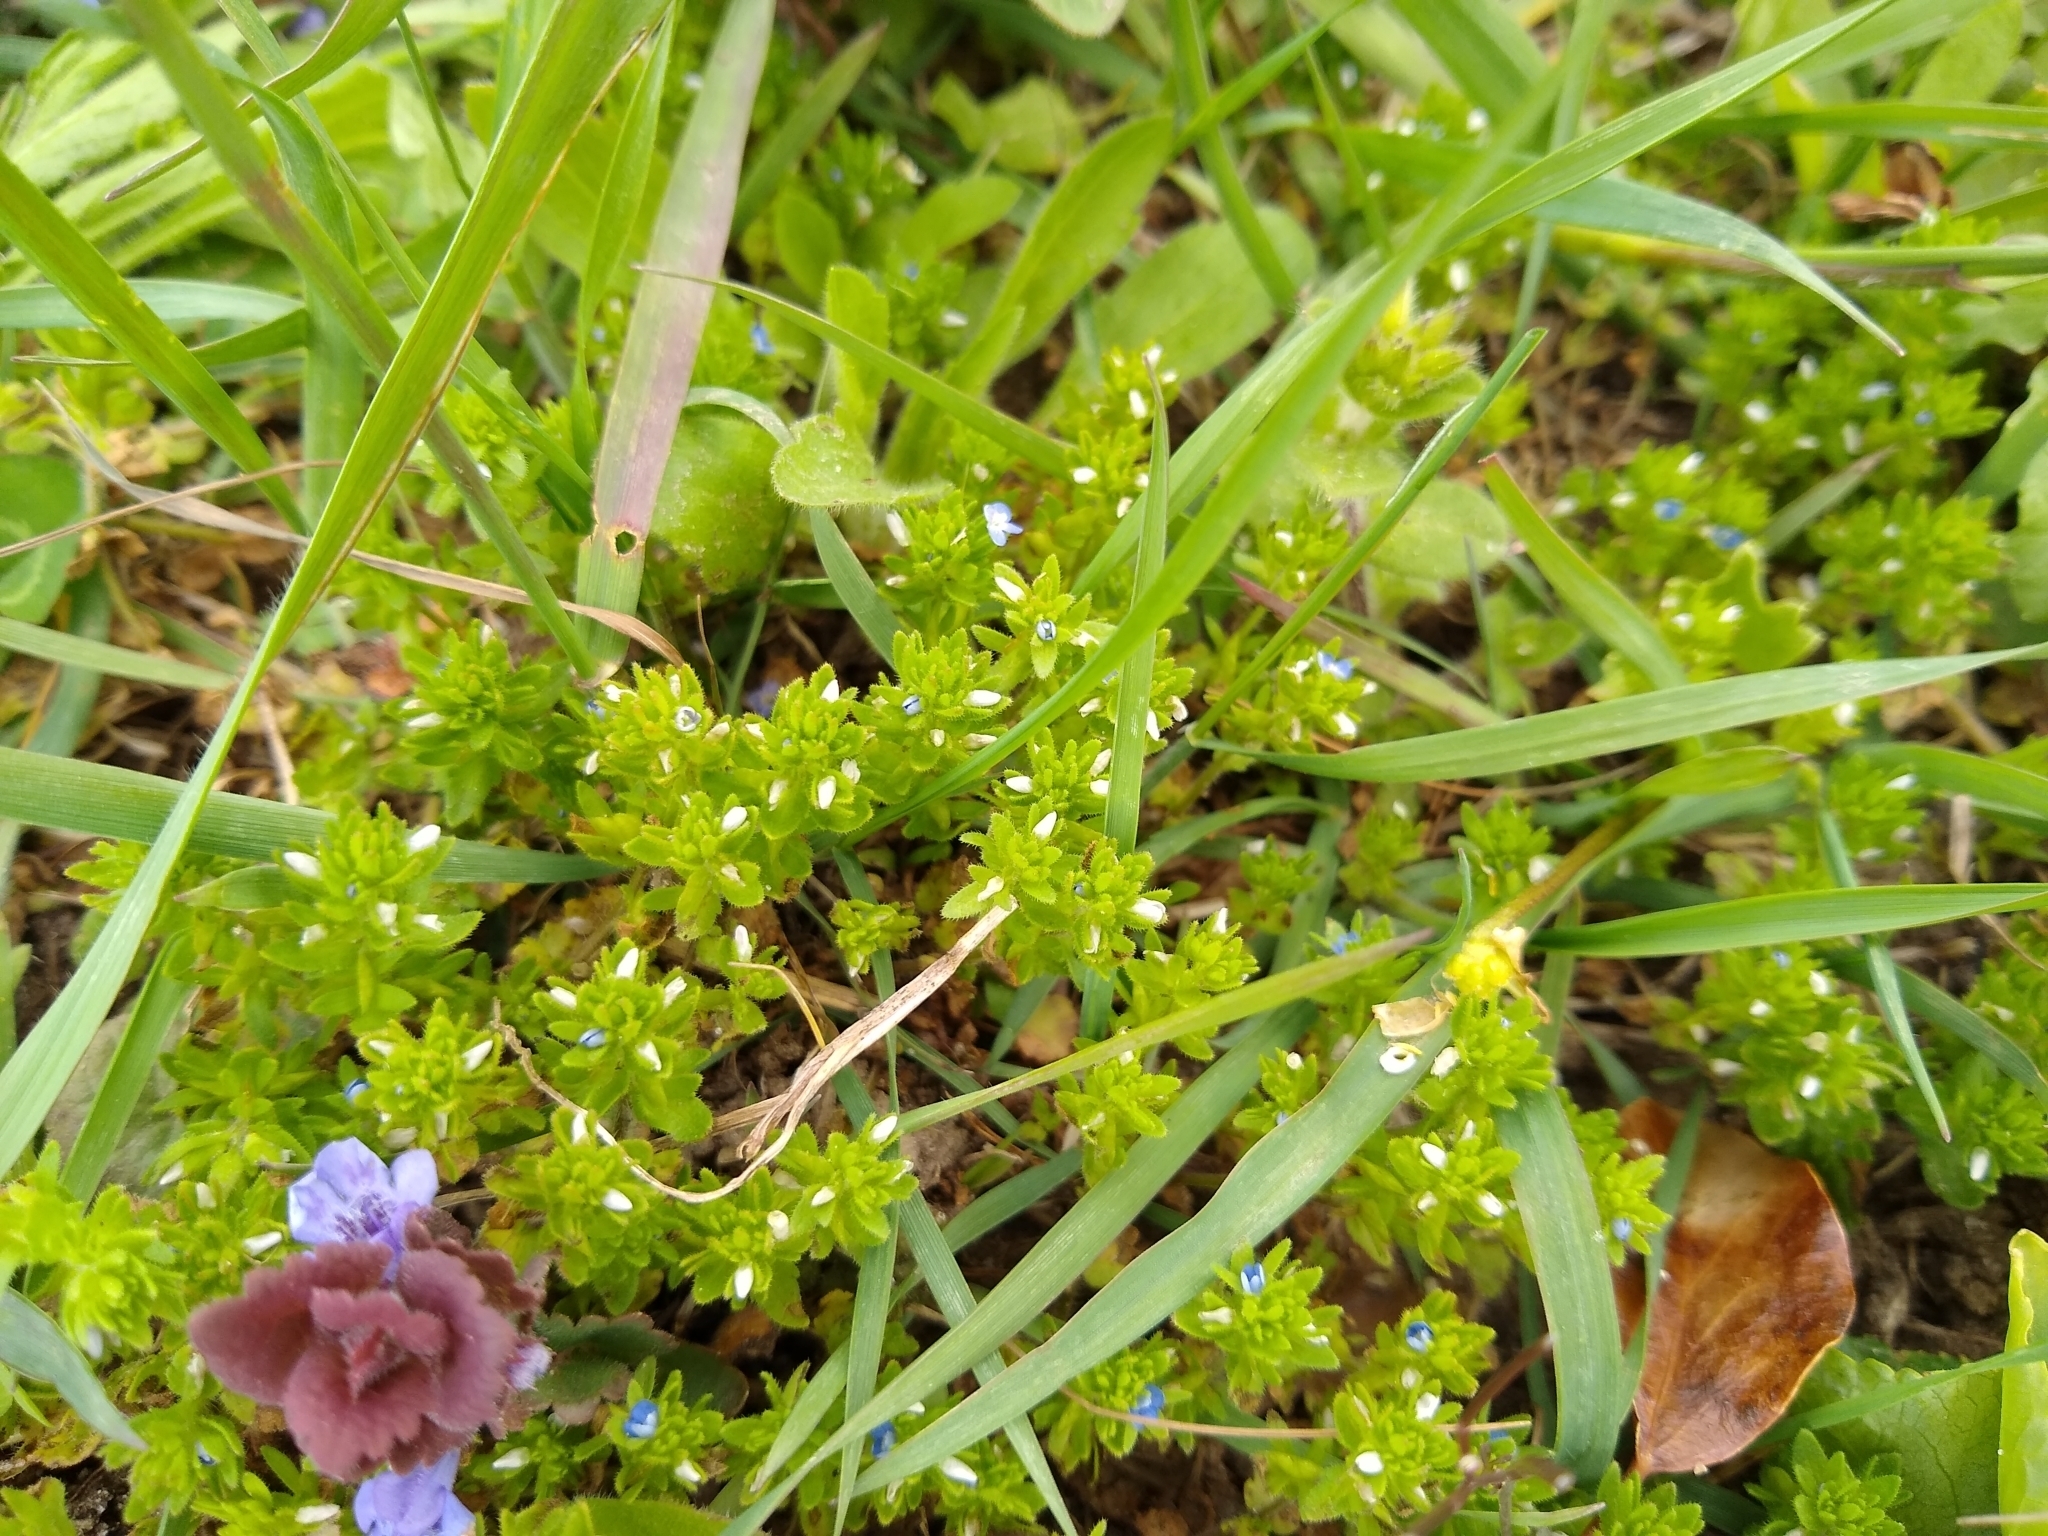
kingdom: Plantae
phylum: Tracheophyta
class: Magnoliopsida
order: Lamiales
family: Plantaginaceae
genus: Veronica
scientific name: Veronica arvensis
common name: Corn speedwell
